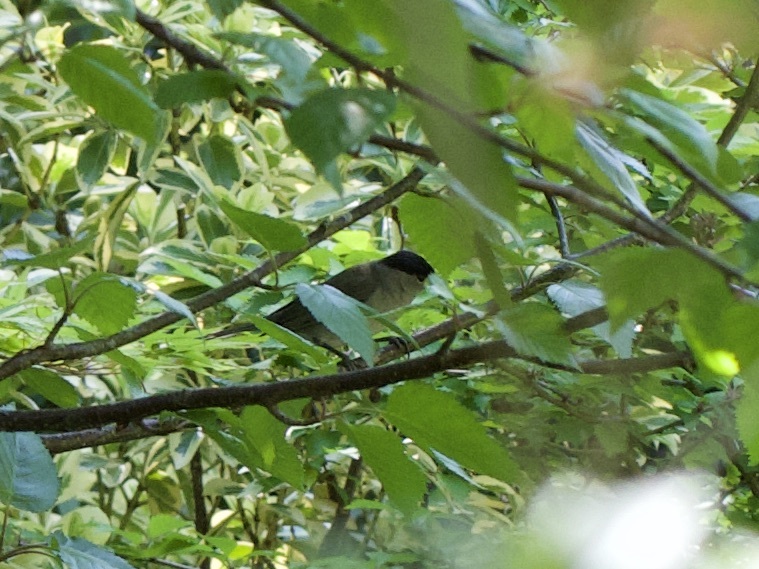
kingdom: Animalia
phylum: Chordata
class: Aves
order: Passeriformes
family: Sylviidae
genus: Sylvia
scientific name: Sylvia atricapilla
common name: Eurasian blackcap
